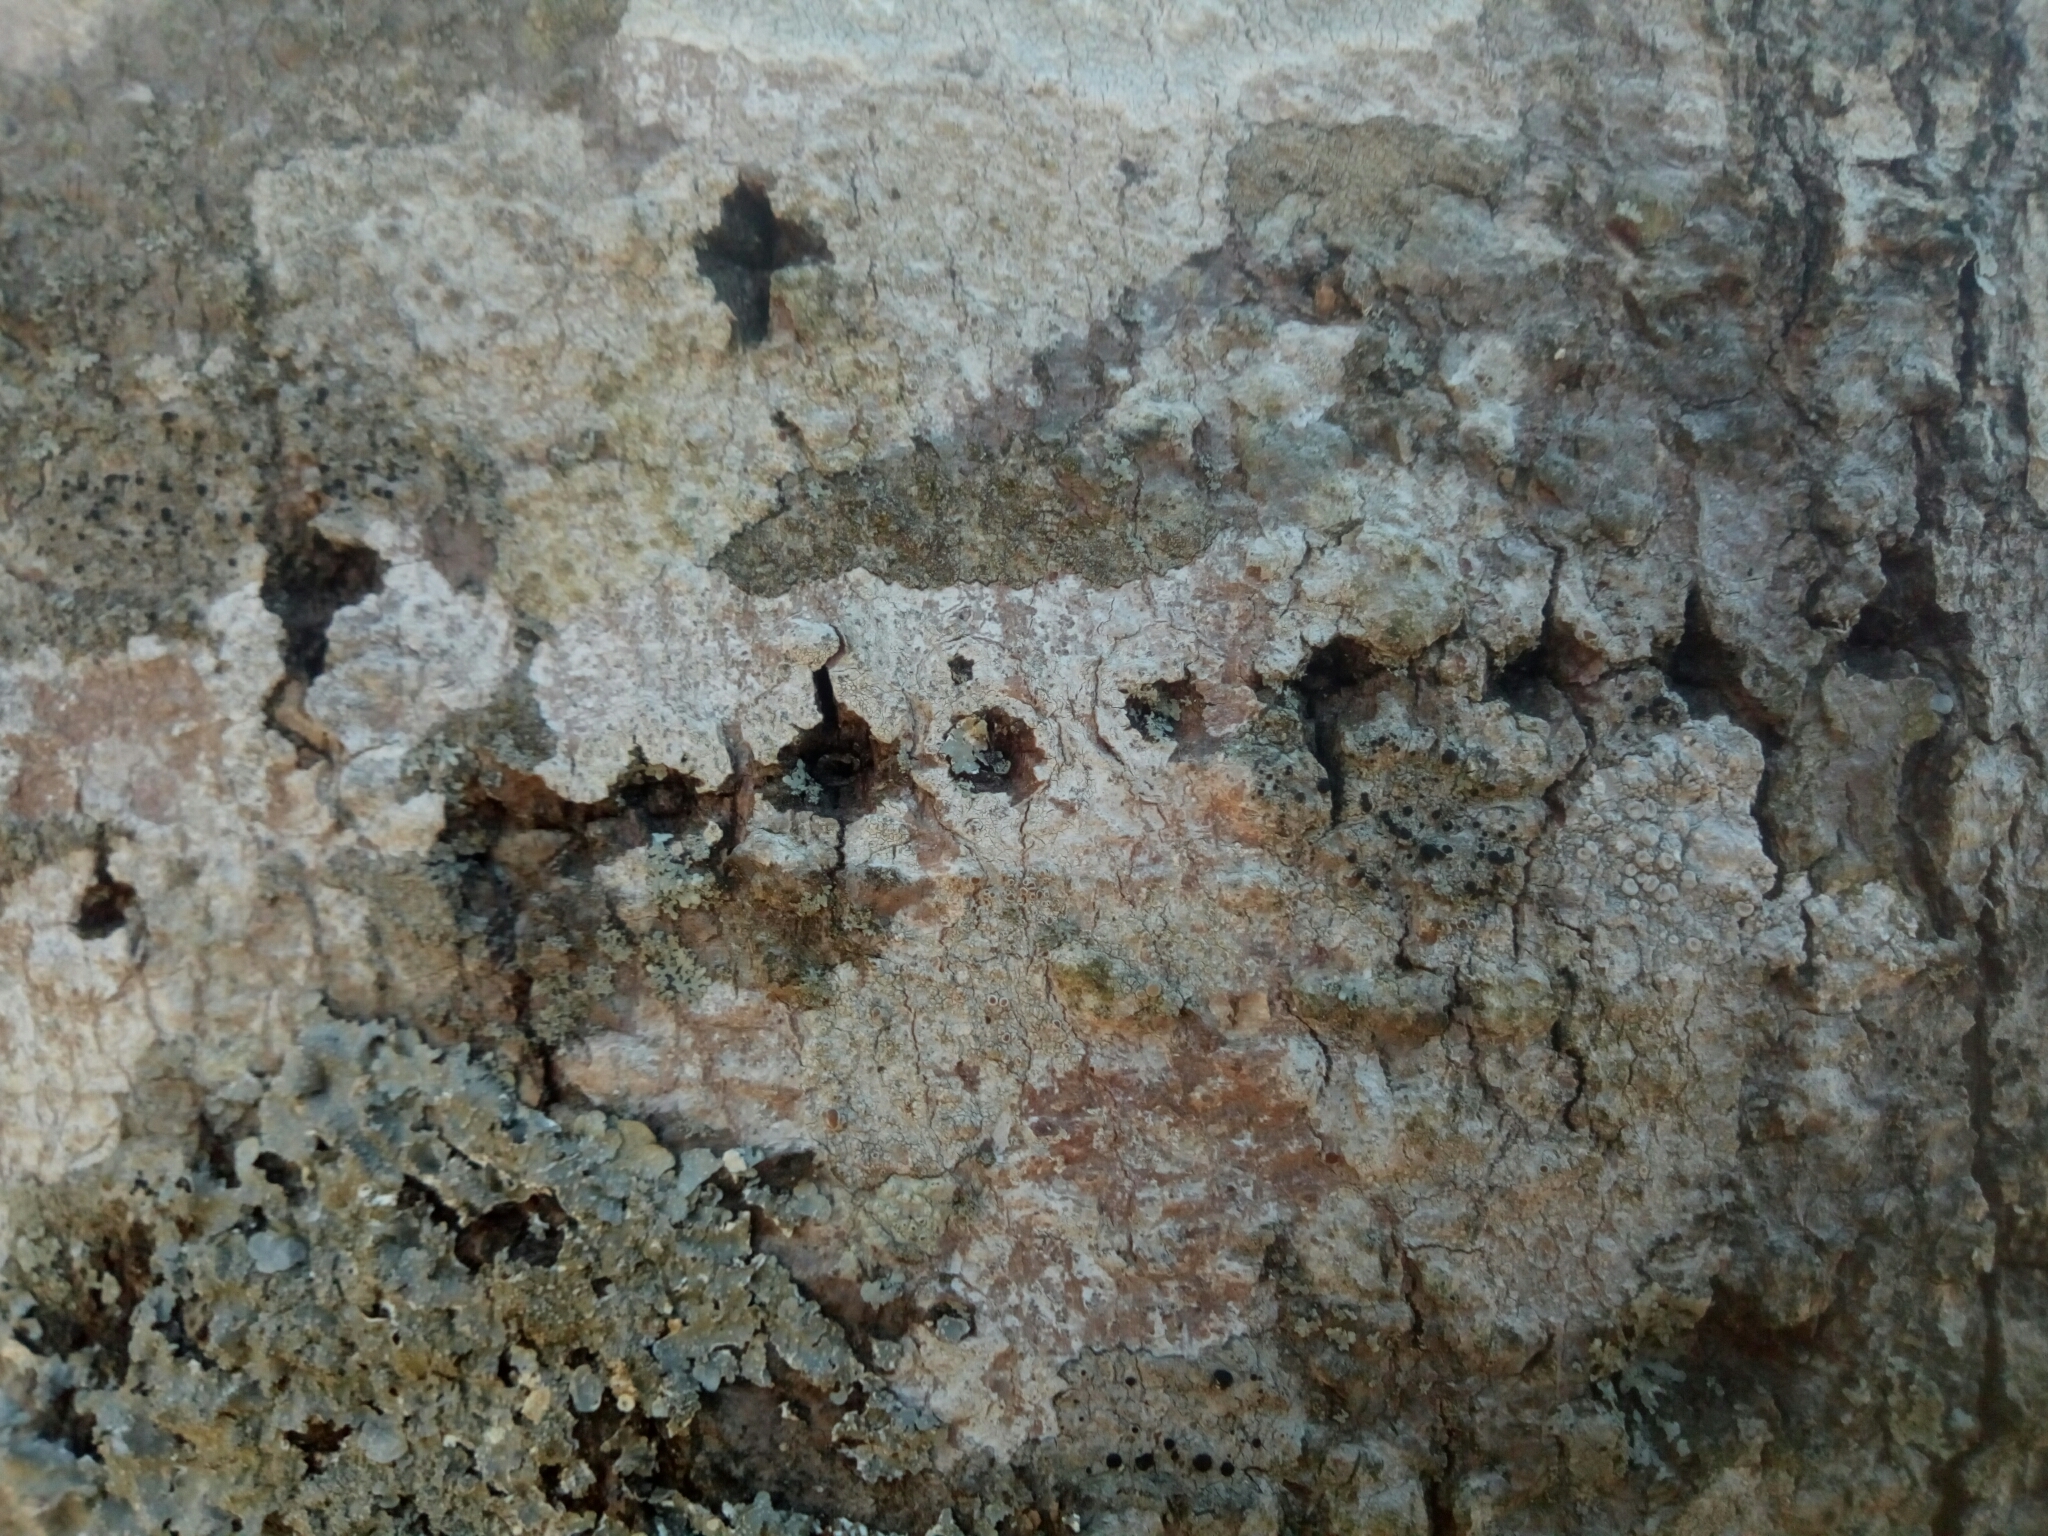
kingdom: Animalia
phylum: Chordata
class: Aves
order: Piciformes
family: Picidae
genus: Sphyrapicus
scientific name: Sphyrapicus varius
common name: Yellow-bellied sapsucker
